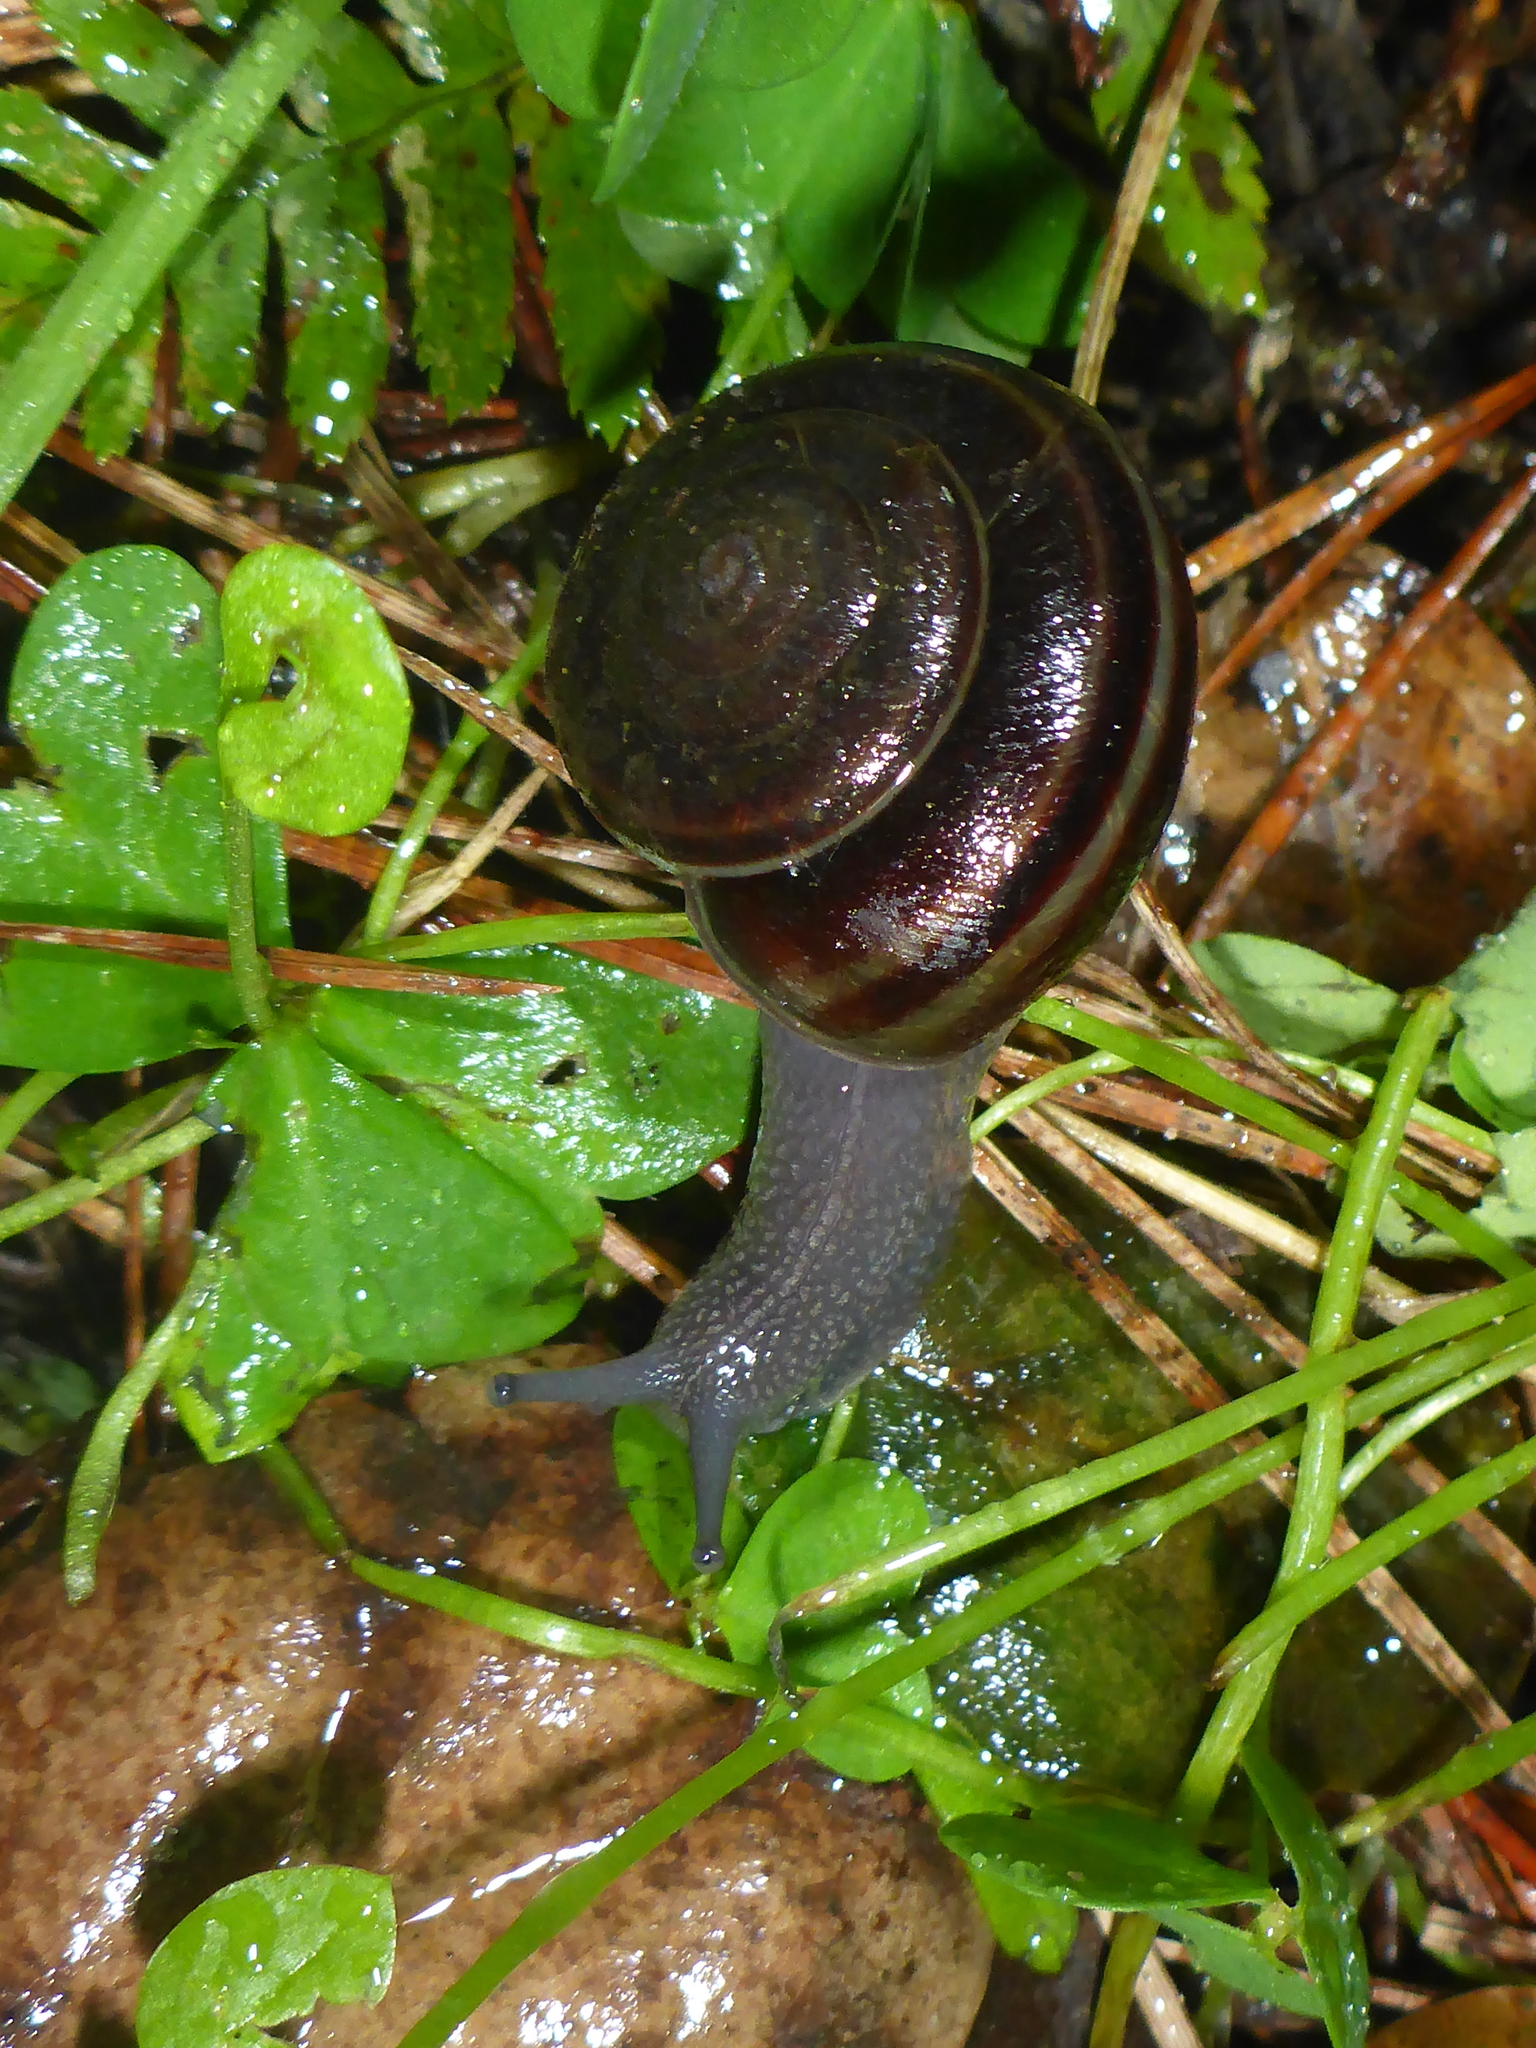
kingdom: Animalia
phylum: Mollusca
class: Gastropoda
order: Stylommatophora
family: Xanthonychidae
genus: Helminthoglypta
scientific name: Helminthoglypta sequoicola
